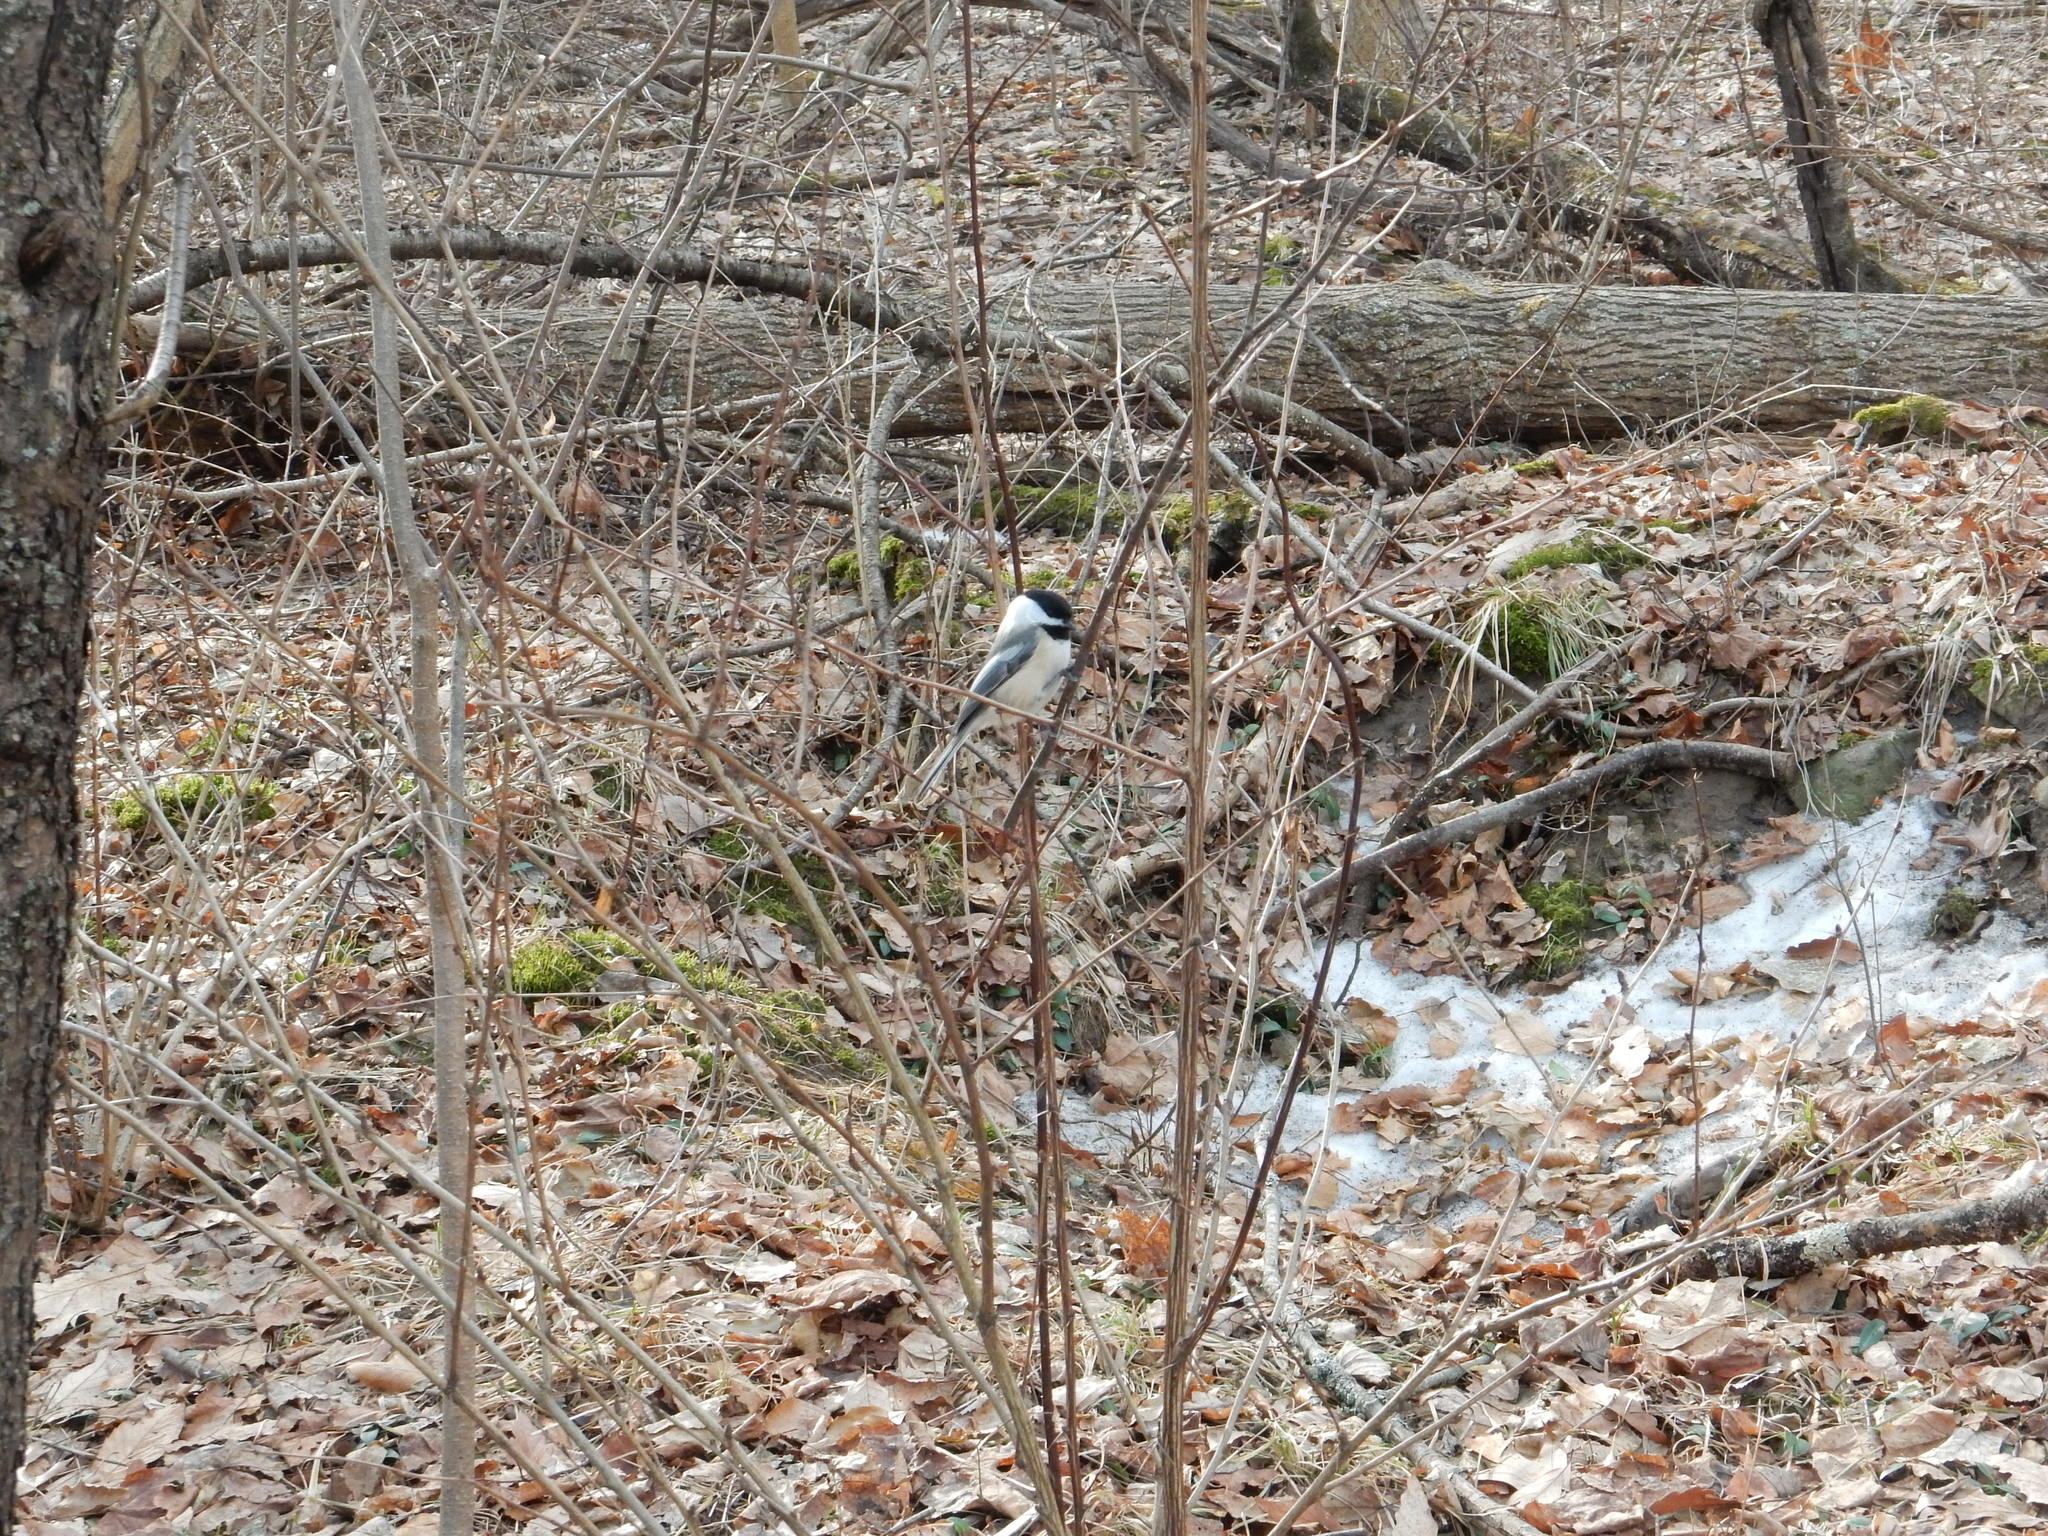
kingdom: Animalia
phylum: Chordata
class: Aves
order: Passeriformes
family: Paridae
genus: Poecile
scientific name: Poecile atricapillus
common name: Black-capped chickadee
